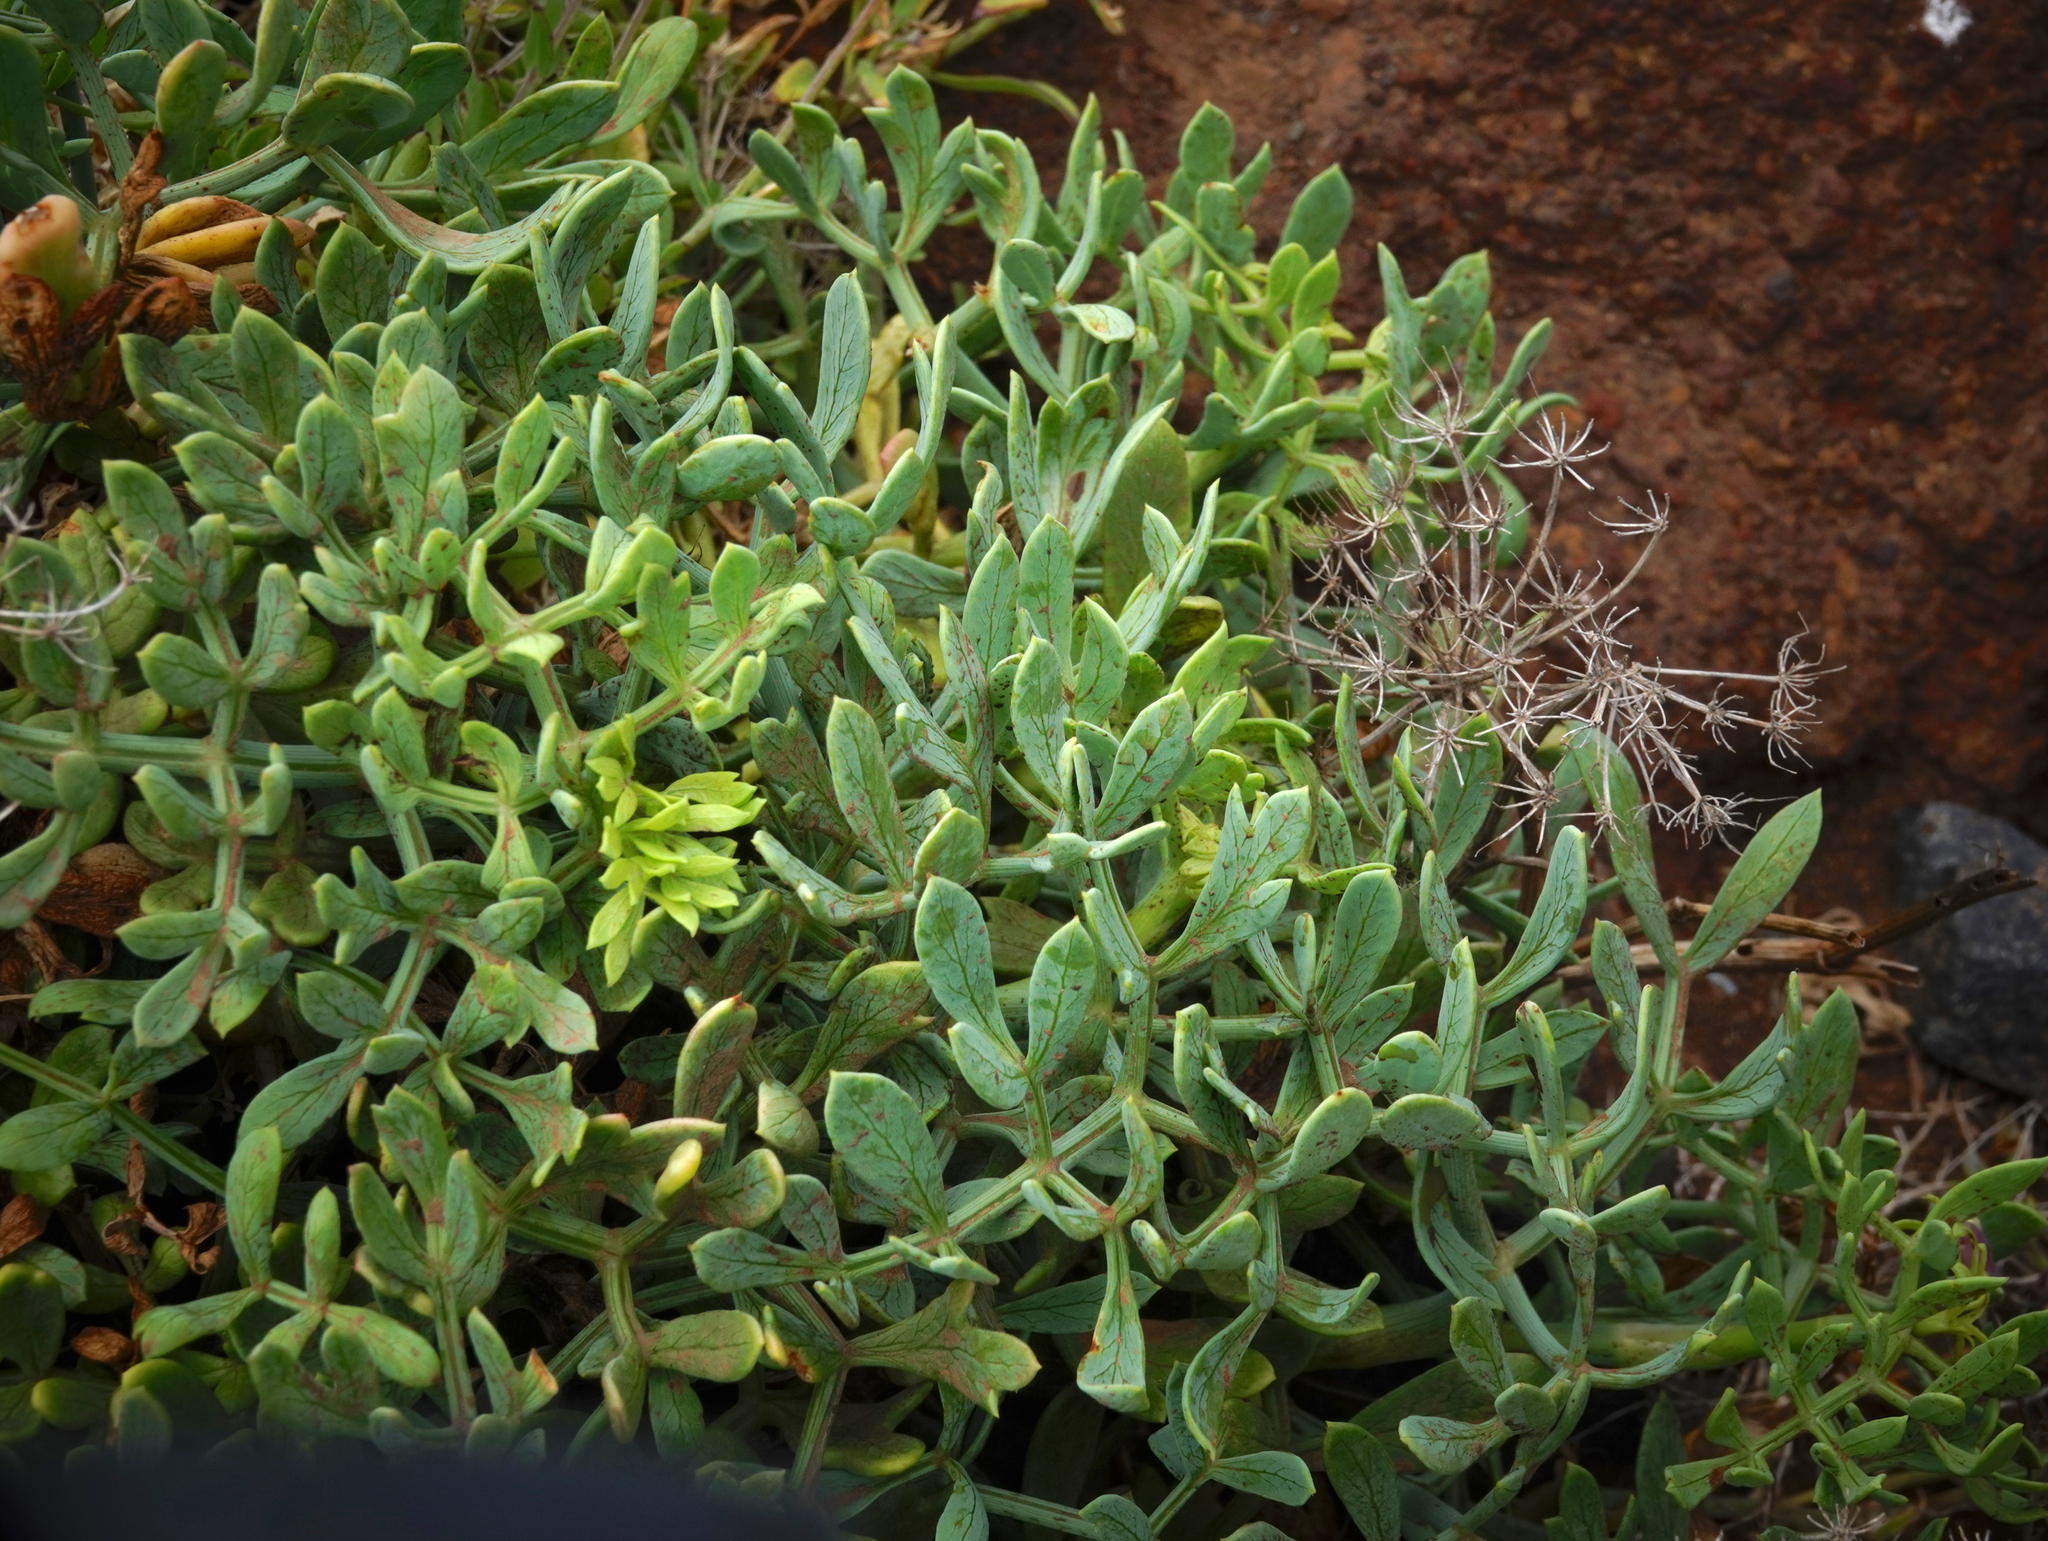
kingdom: Plantae
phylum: Tracheophyta
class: Magnoliopsida
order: Apiales
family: Apiaceae
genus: Crithmum
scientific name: Crithmum maritimum
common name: Rock samphire
